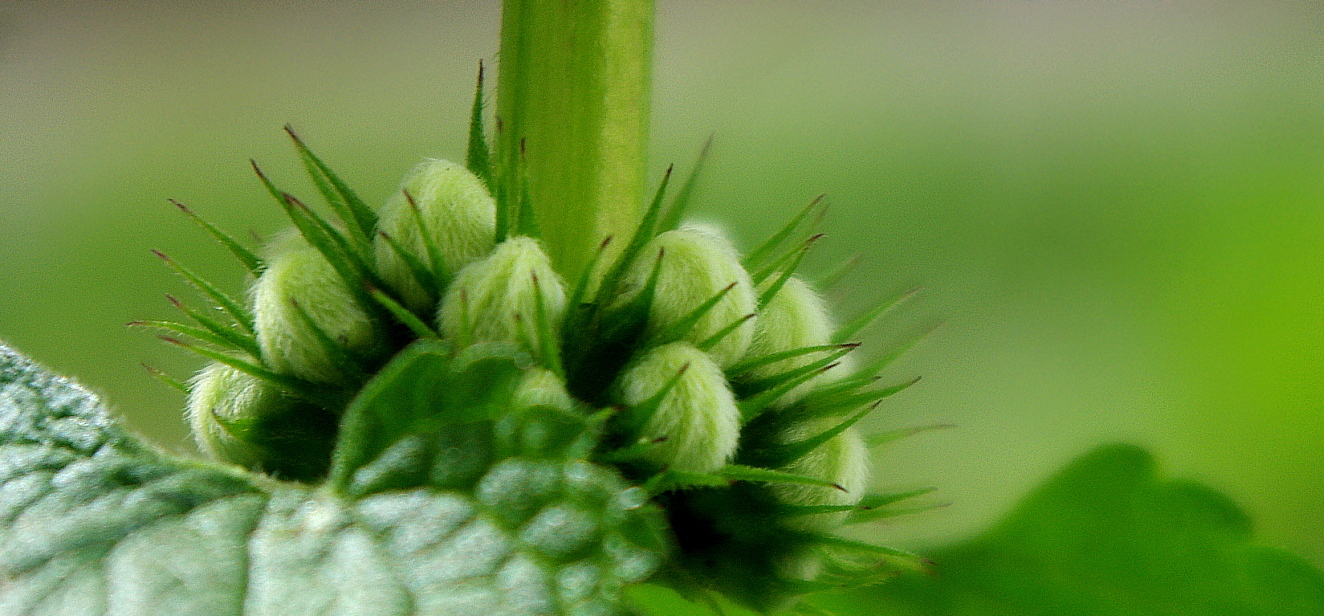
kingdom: Plantae
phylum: Tracheophyta
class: Magnoliopsida
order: Lamiales
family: Lamiaceae
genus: Lamium
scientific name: Lamium album
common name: White dead-nettle
